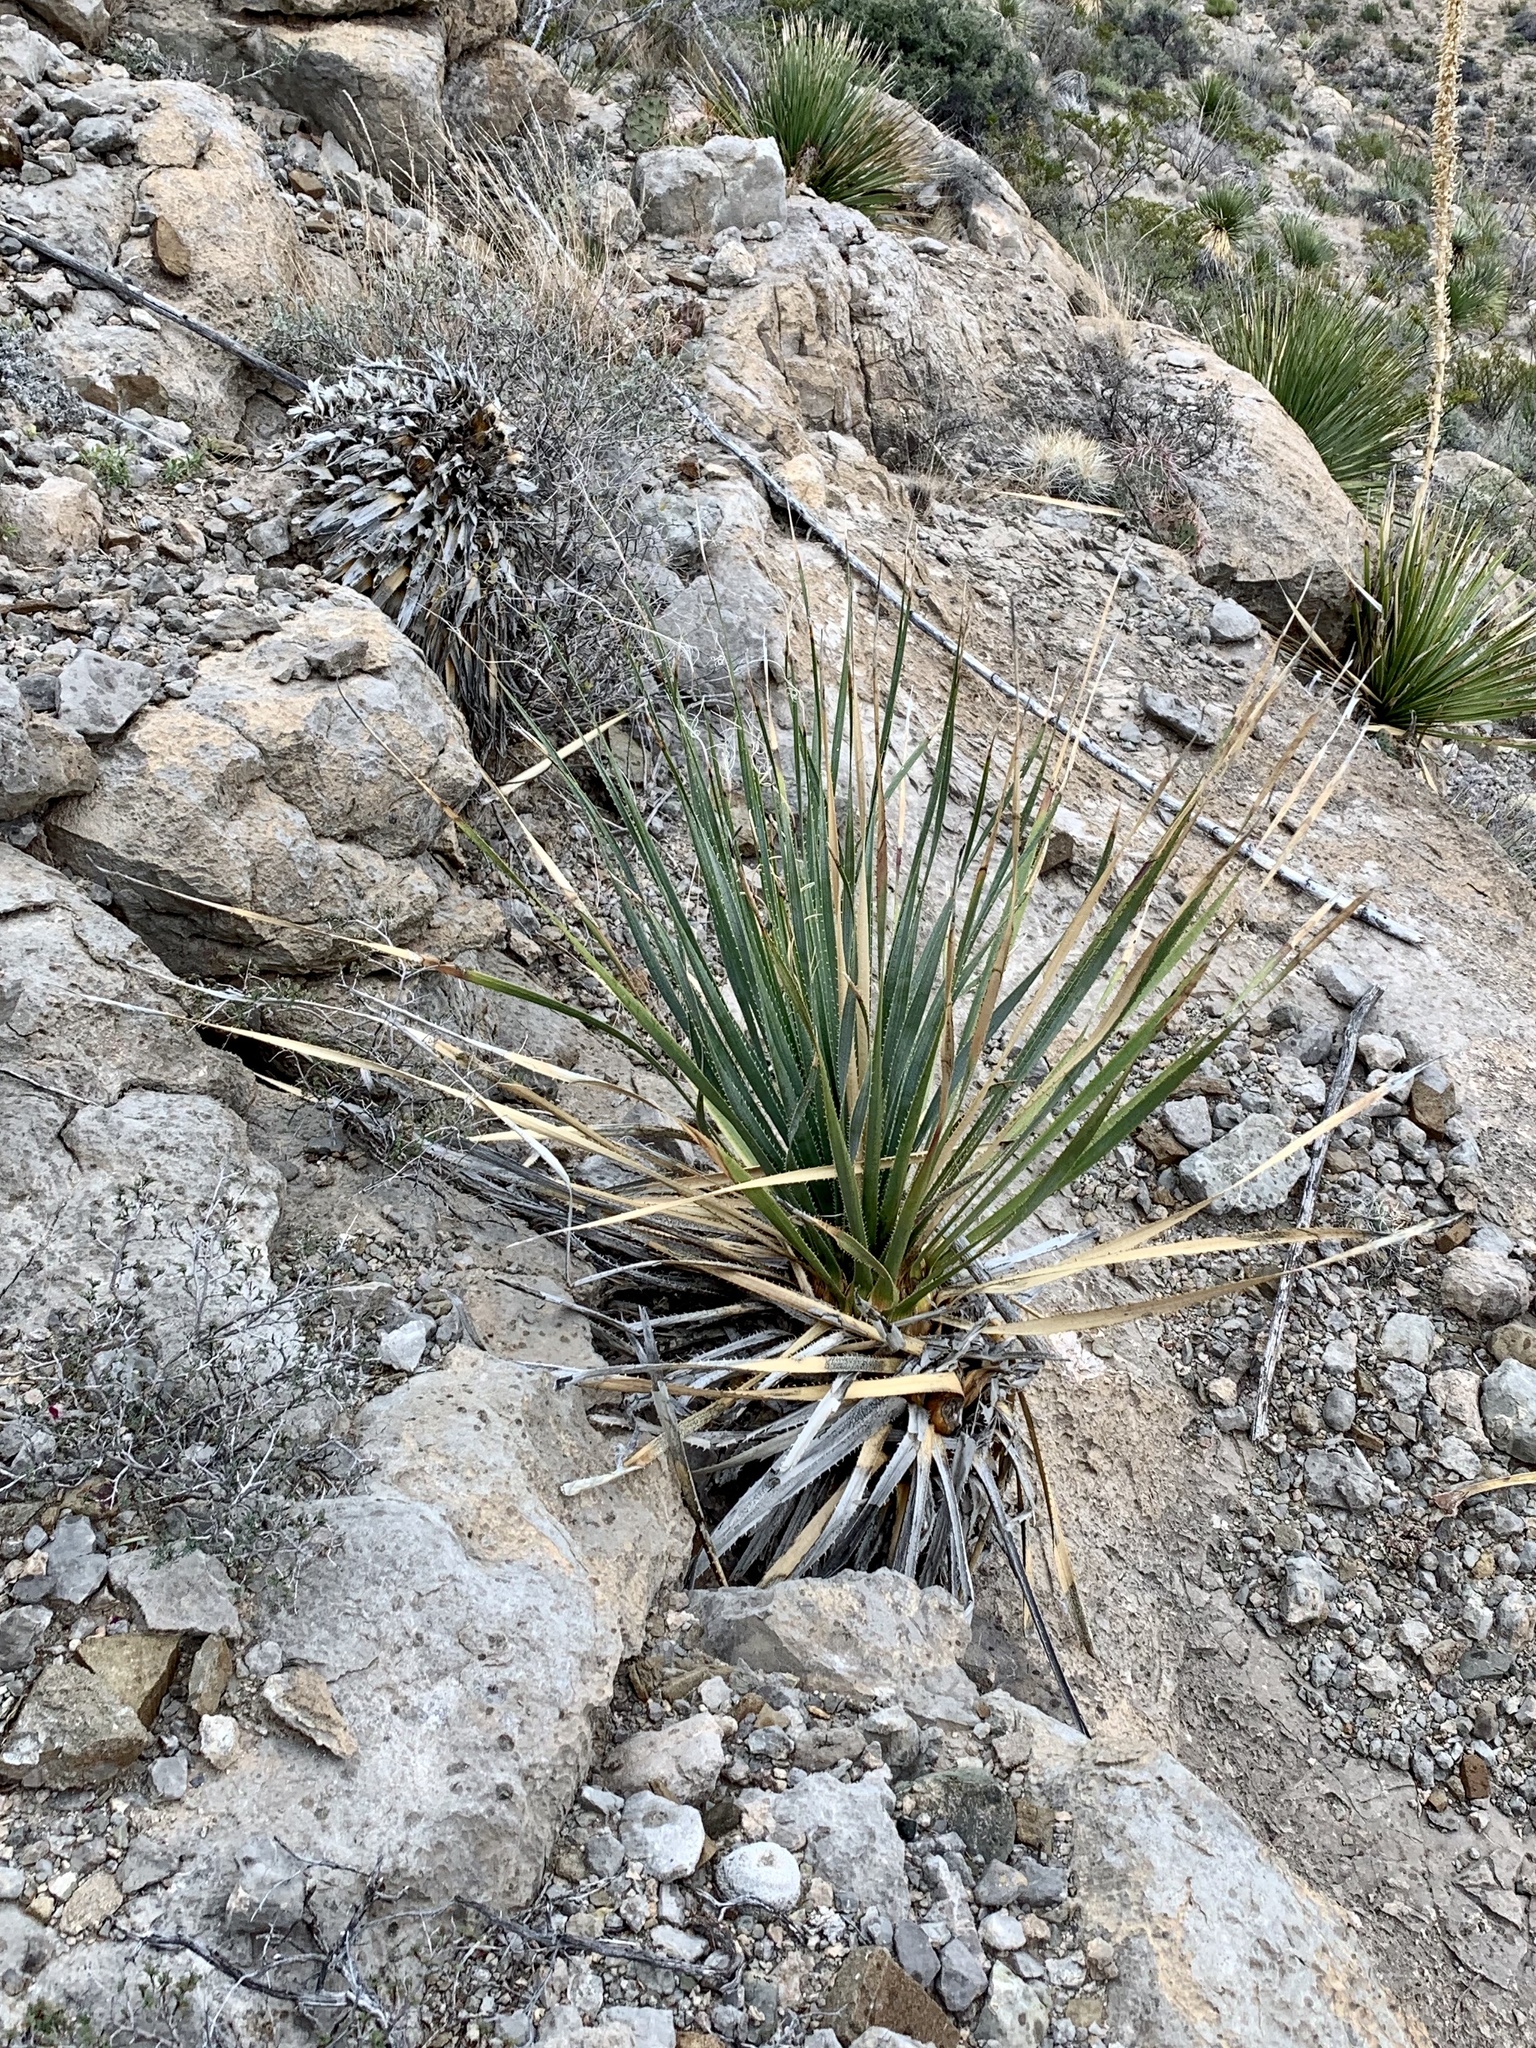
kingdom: Plantae
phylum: Tracheophyta
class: Liliopsida
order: Asparagales
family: Asparagaceae
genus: Dasylirion
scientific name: Dasylirion wheeleri
